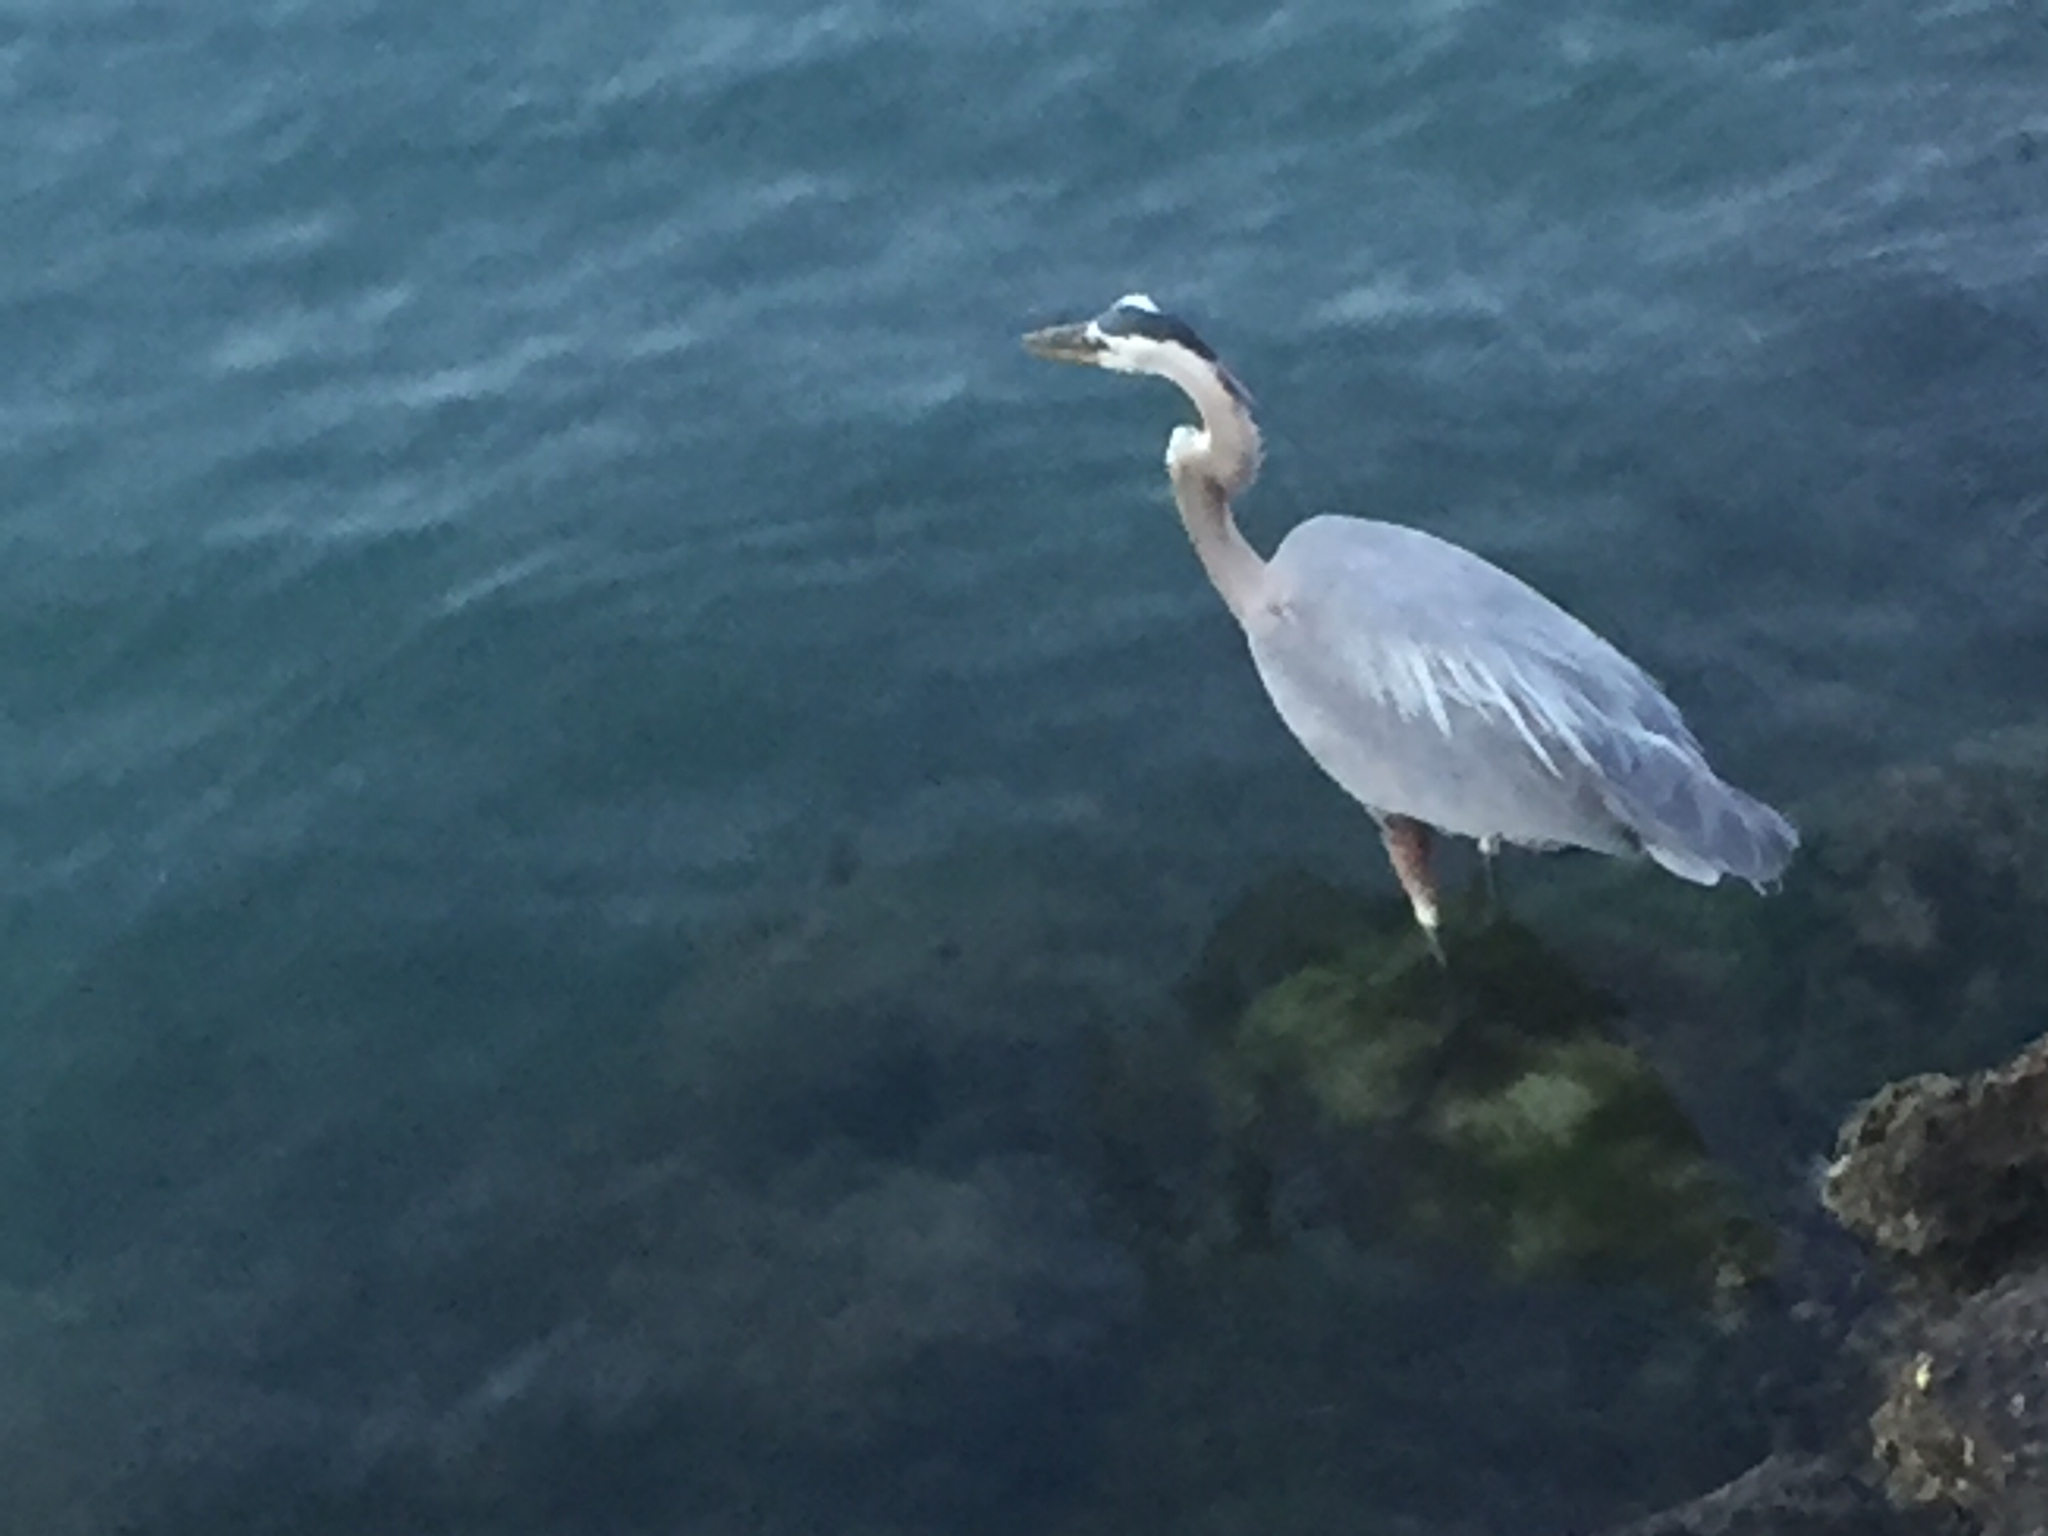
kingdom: Animalia
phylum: Chordata
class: Aves
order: Pelecaniformes
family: Ardeidae
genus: Ardea
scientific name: Ardea herodias
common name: Great blue heron
